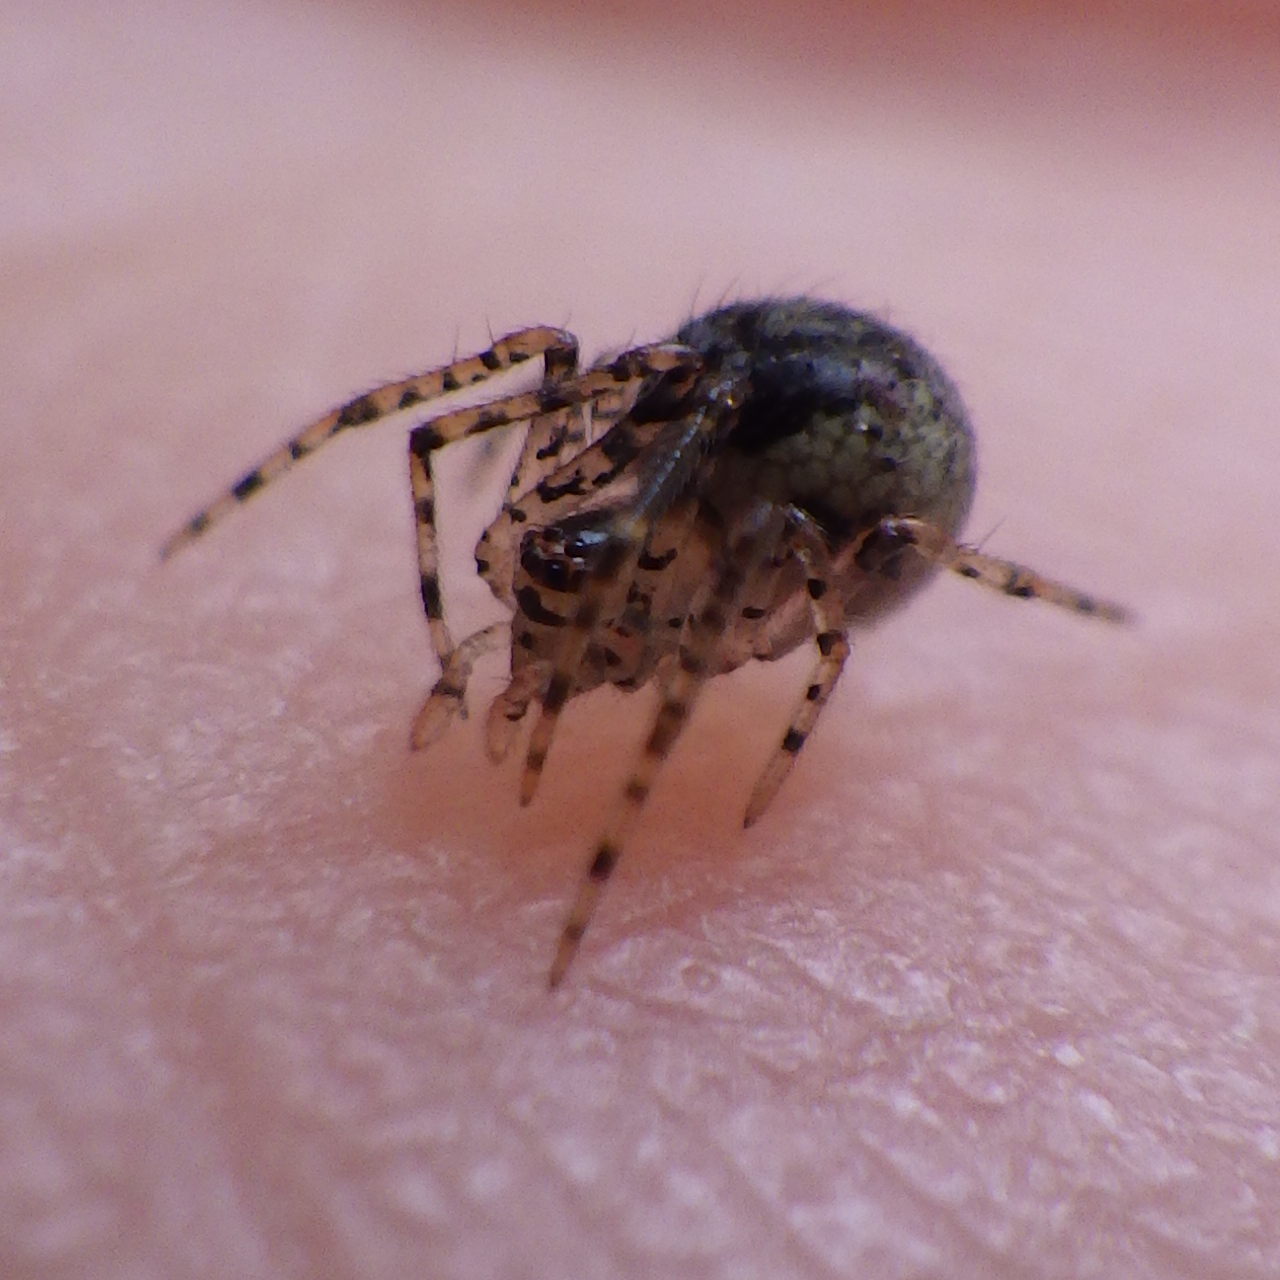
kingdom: Animalia
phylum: Arthropoda
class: Arachnida
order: Araneae
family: Theridiidae
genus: Platnickina
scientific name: Platnickina tincta
